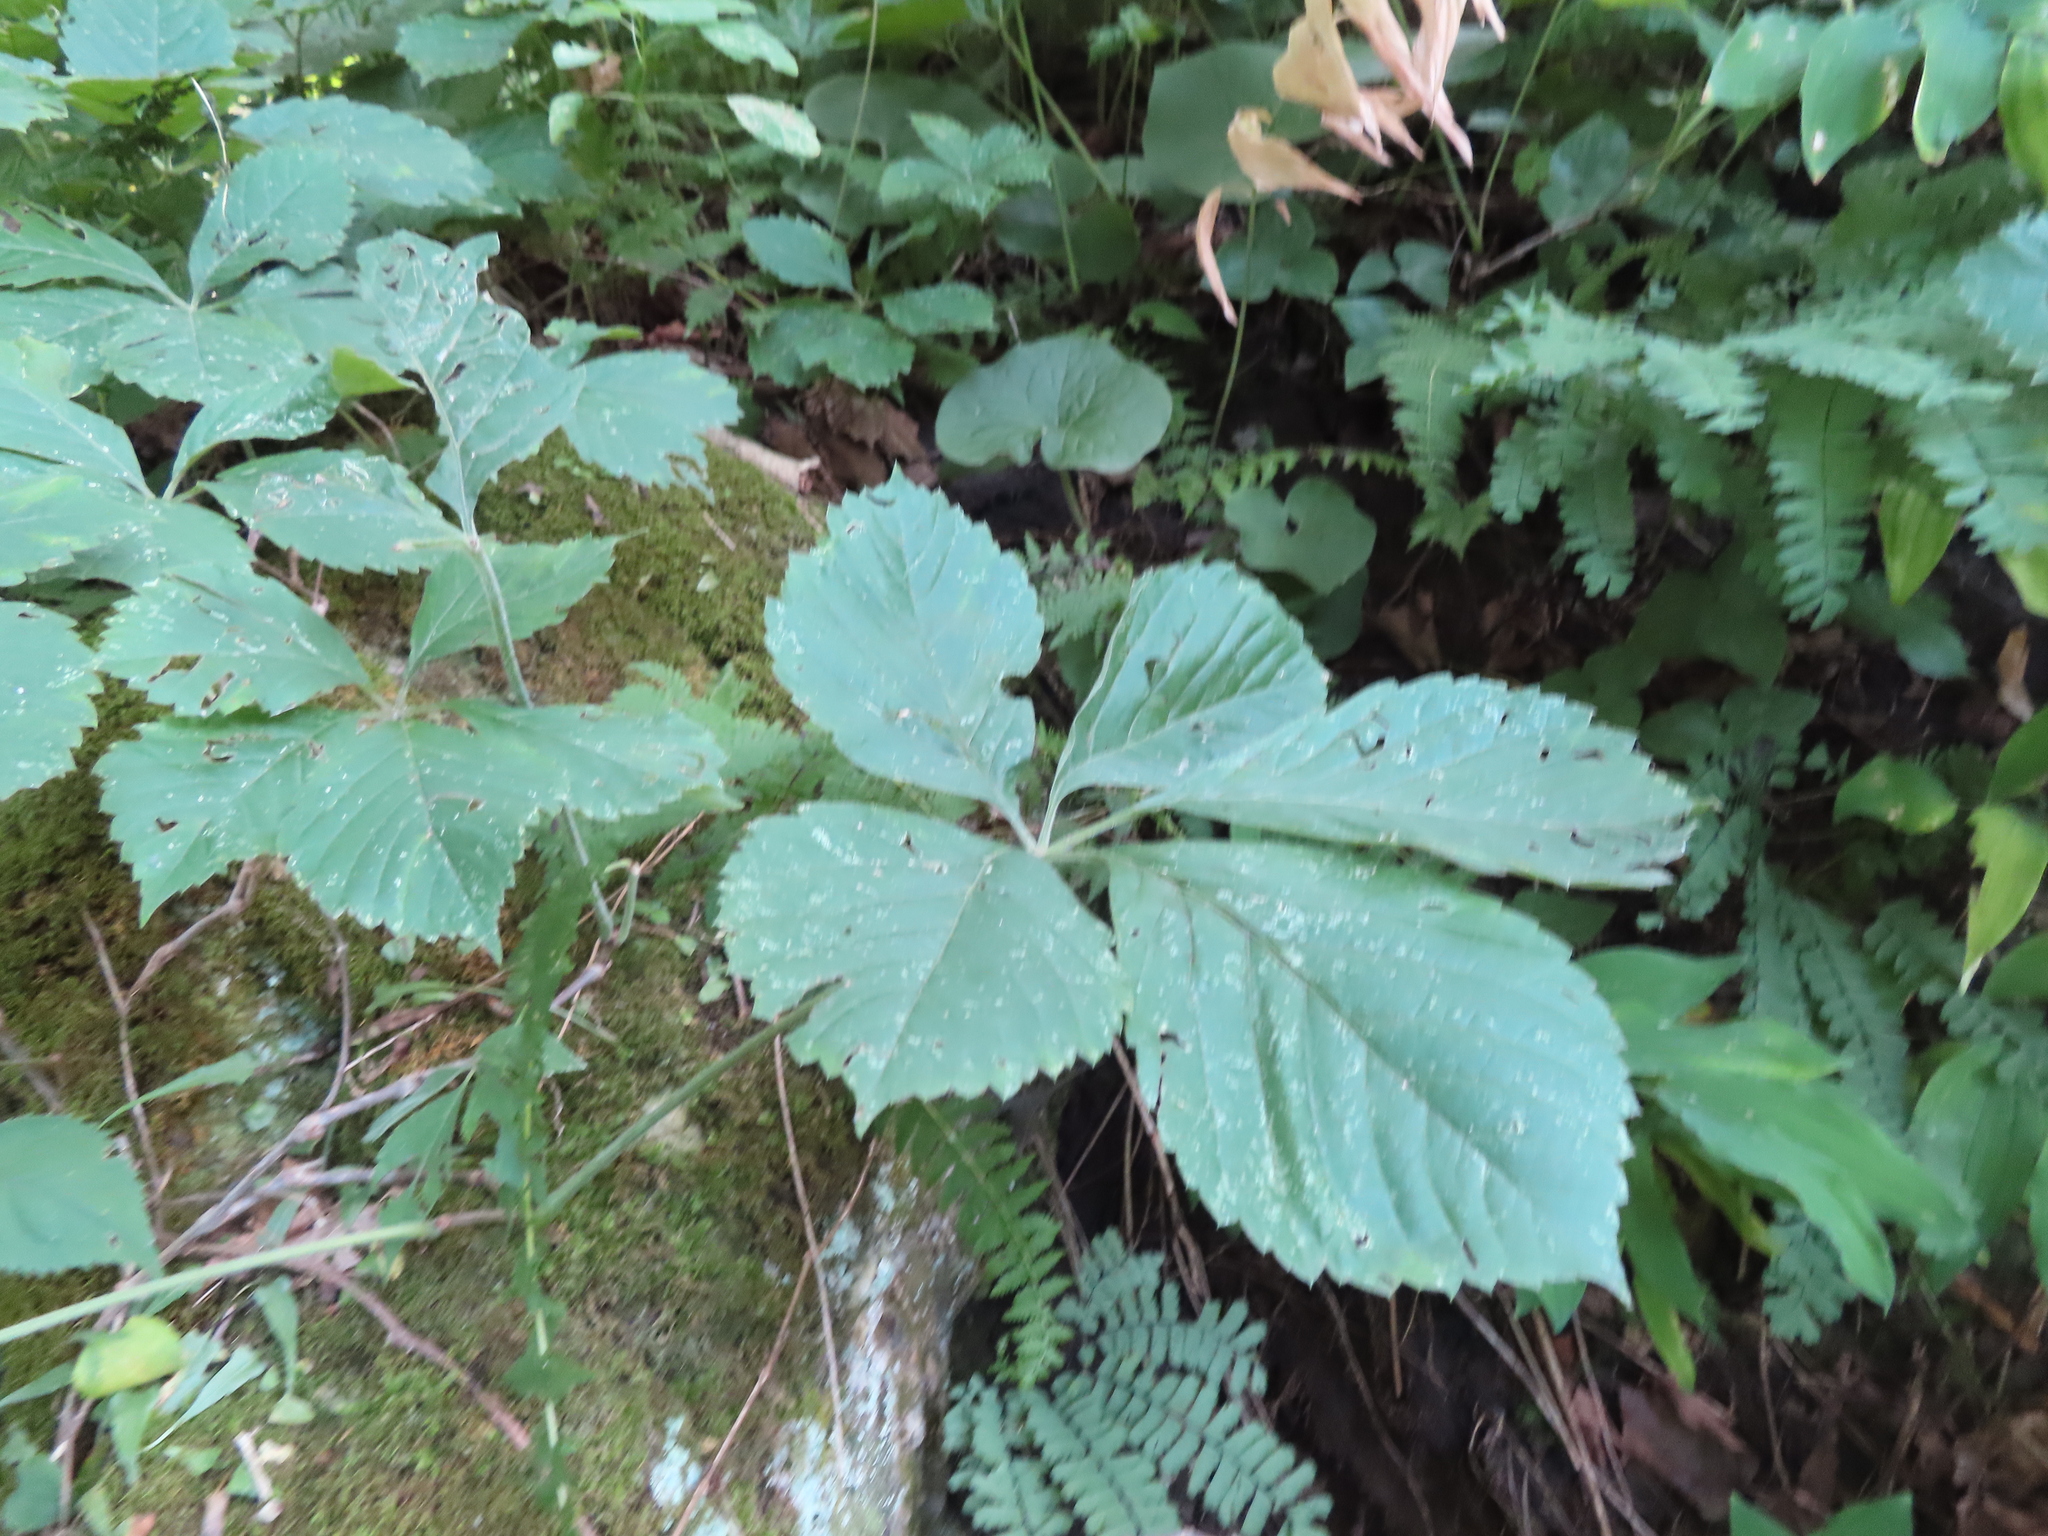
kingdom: Plantae
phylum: Tracheophyta
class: Magnoliopsida
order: Vitales
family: Vitaceae
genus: Parthenocissus
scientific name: Parthenocissus inserta
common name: False virginia-creeper
